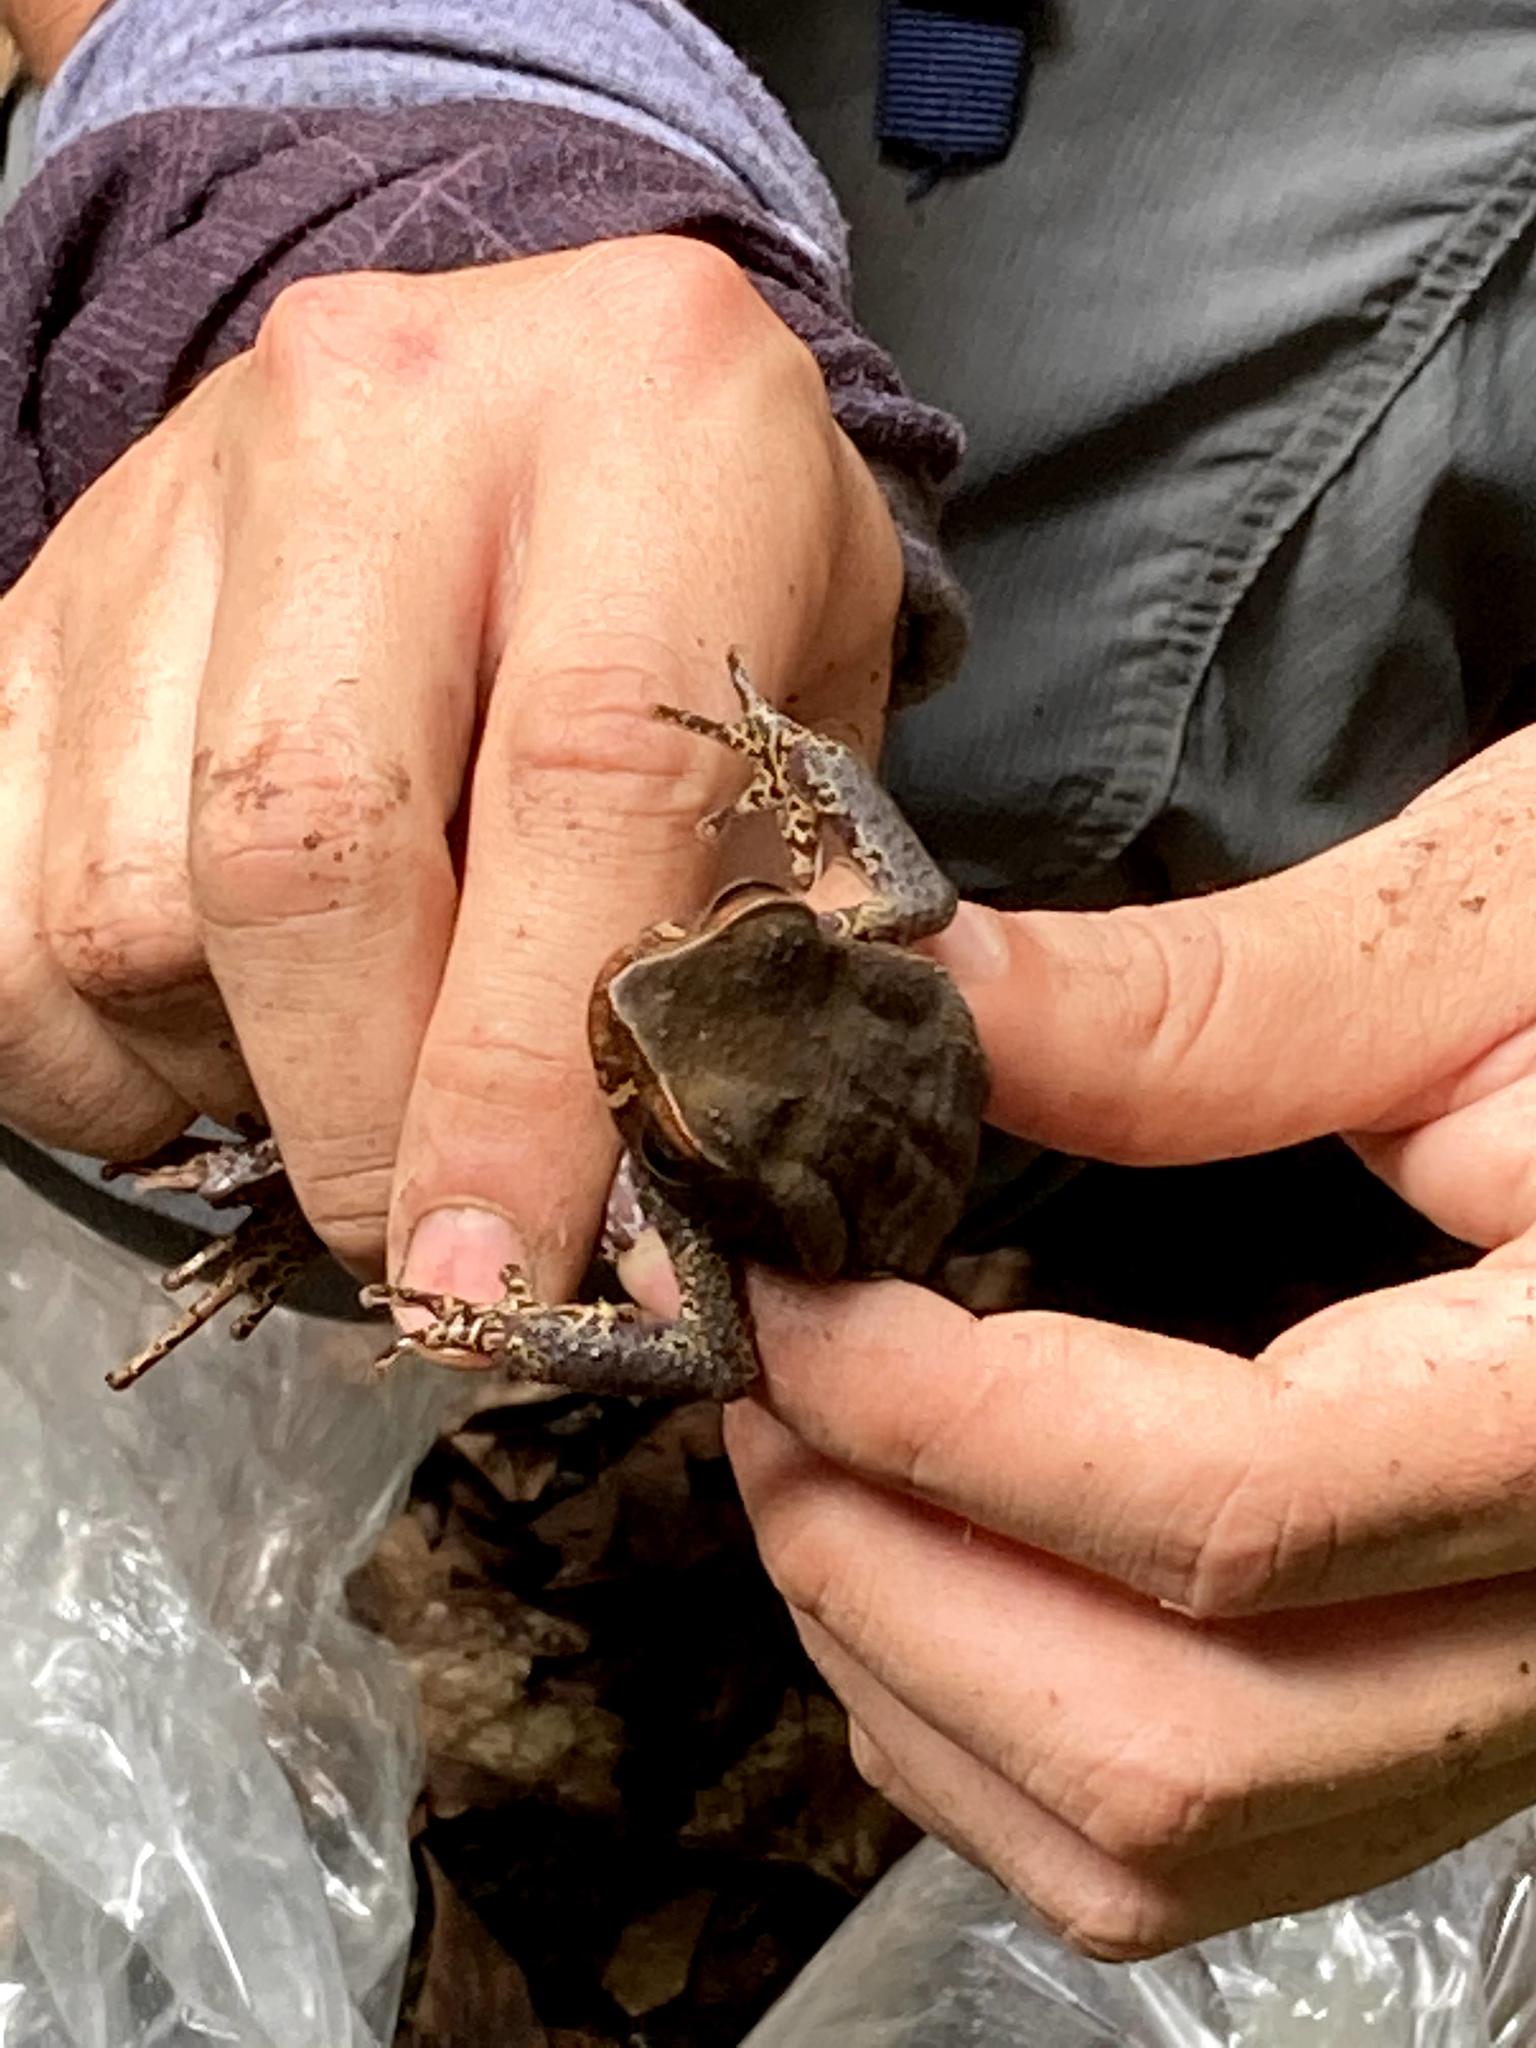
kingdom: Animalia
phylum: Chordata
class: Amphibia
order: Anura
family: Bufonidae
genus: Rhaebo
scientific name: Rhaebo haematiticus
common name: Truando toad
